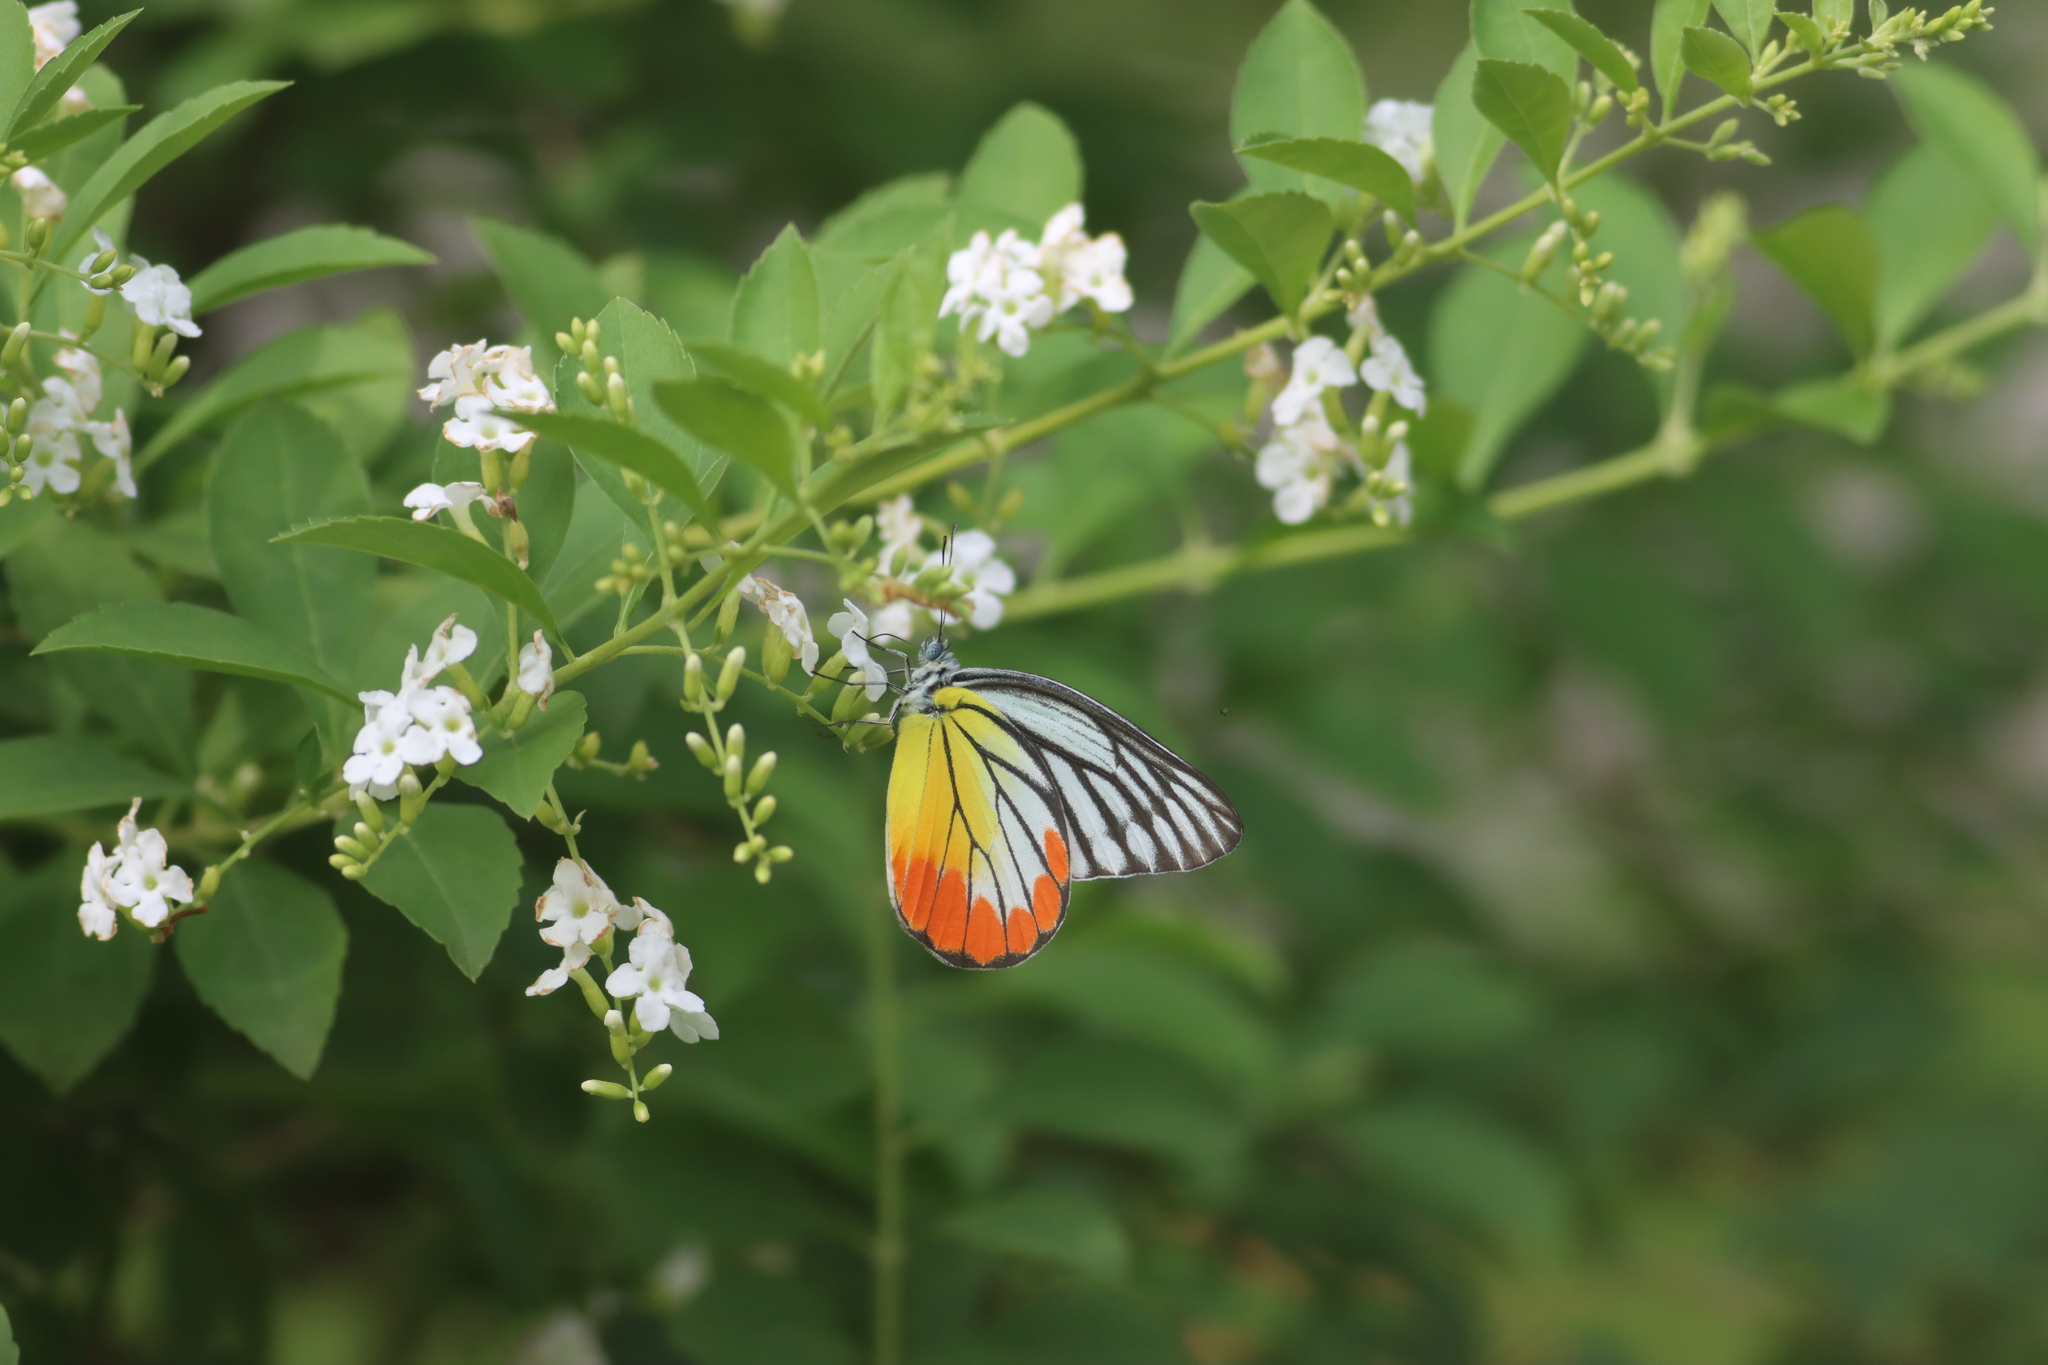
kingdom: Animalia
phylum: Arthropoda
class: Insecta
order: Lepidoptera
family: Pieridae
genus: Delias
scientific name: Delias hyparete
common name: Painted jezebel
